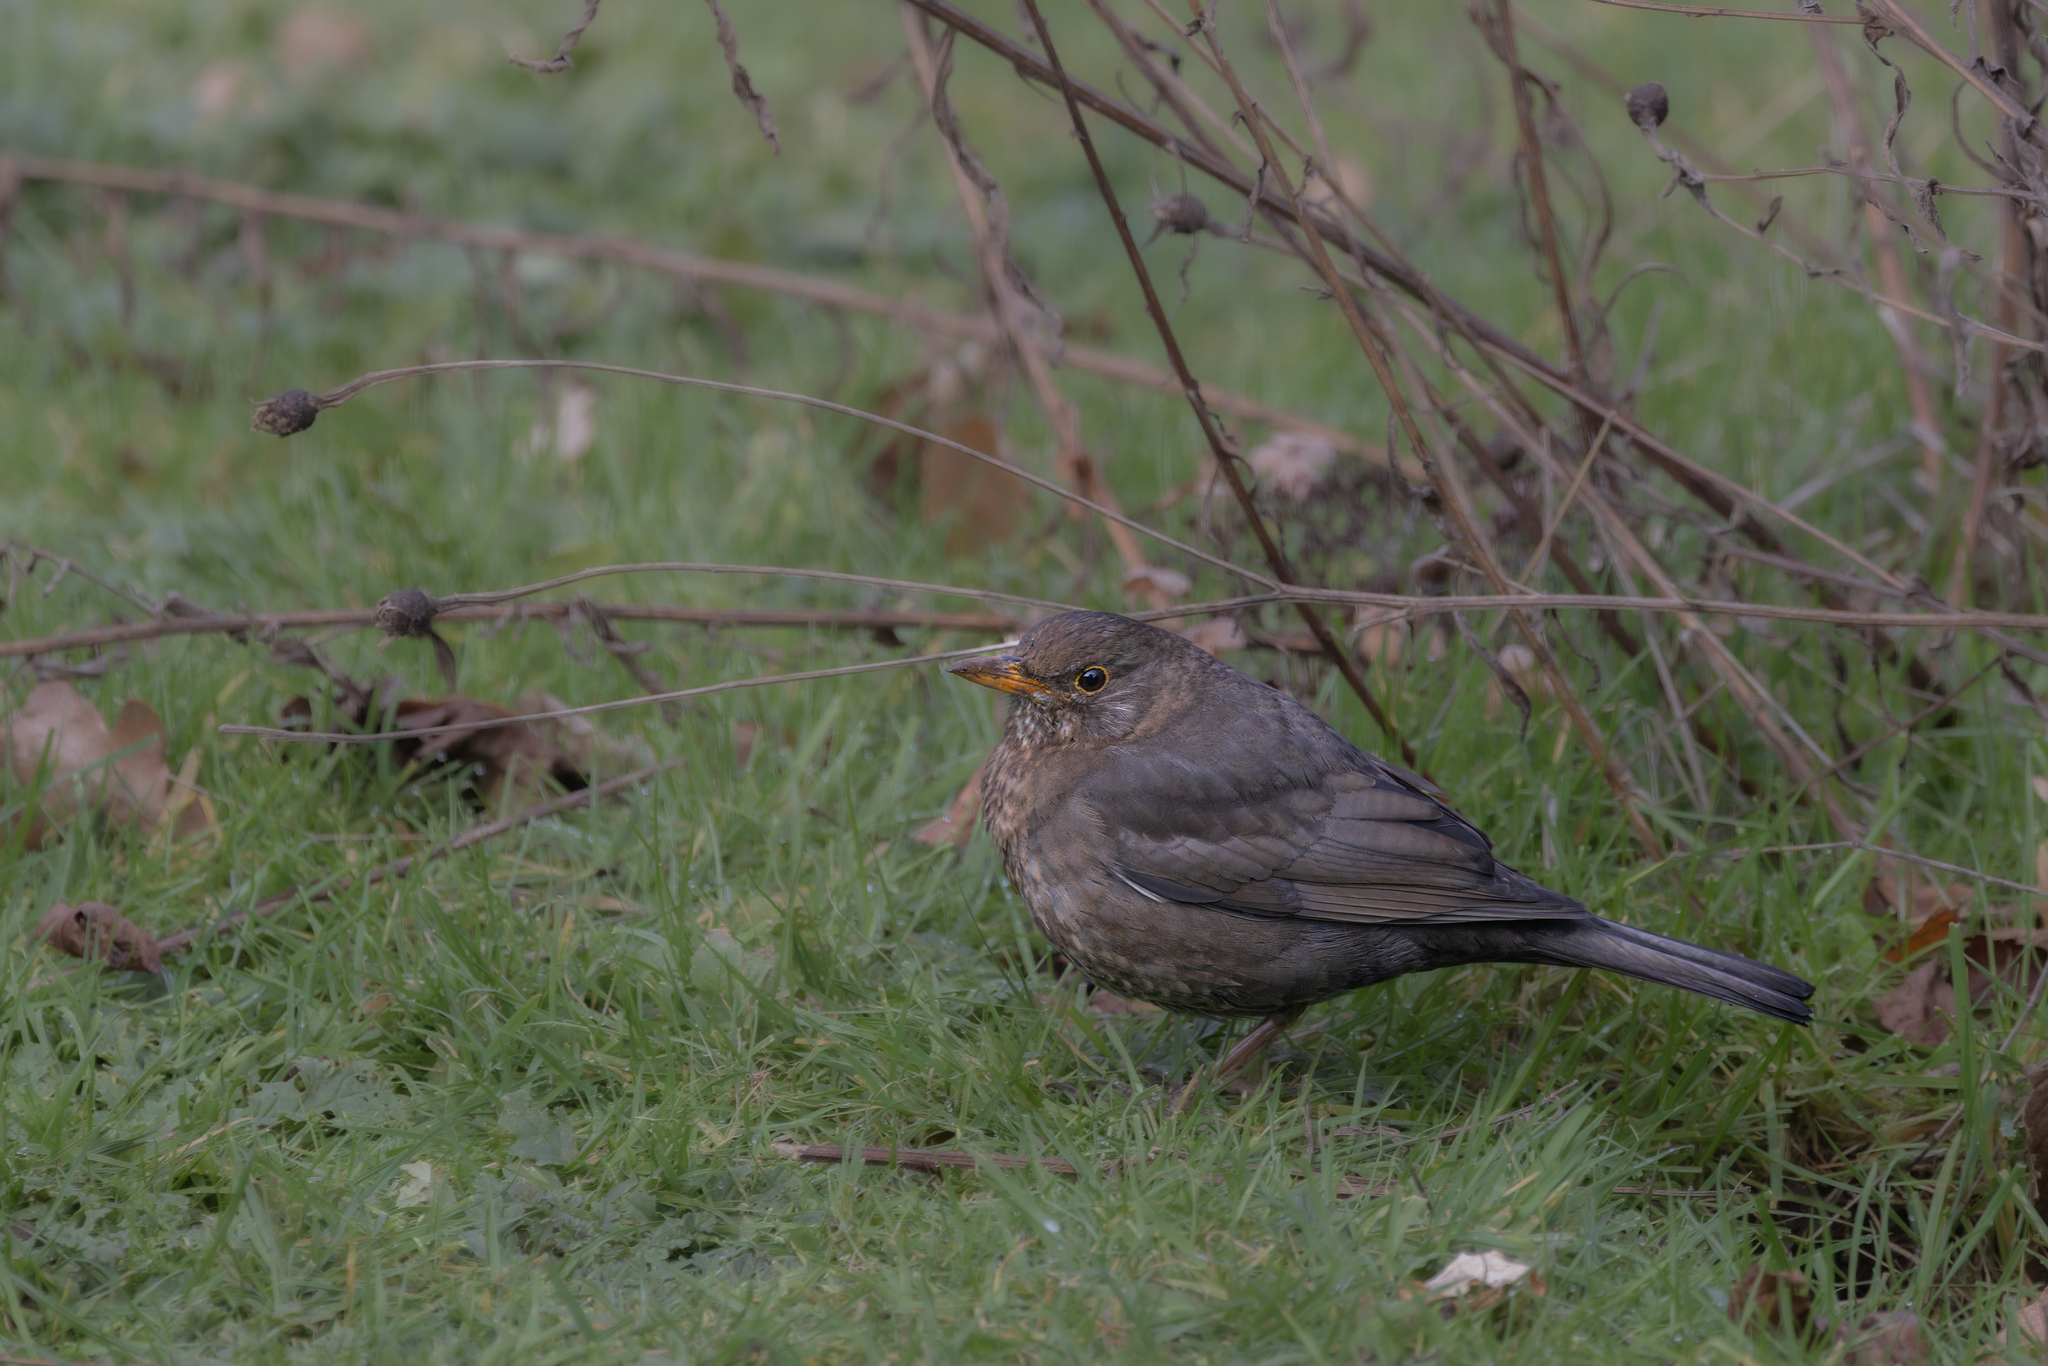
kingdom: Animalia
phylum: Chordata
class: Aves
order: Passeriformes
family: Turdidae
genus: Turdus
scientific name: Turdus merula
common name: Common blackbird
